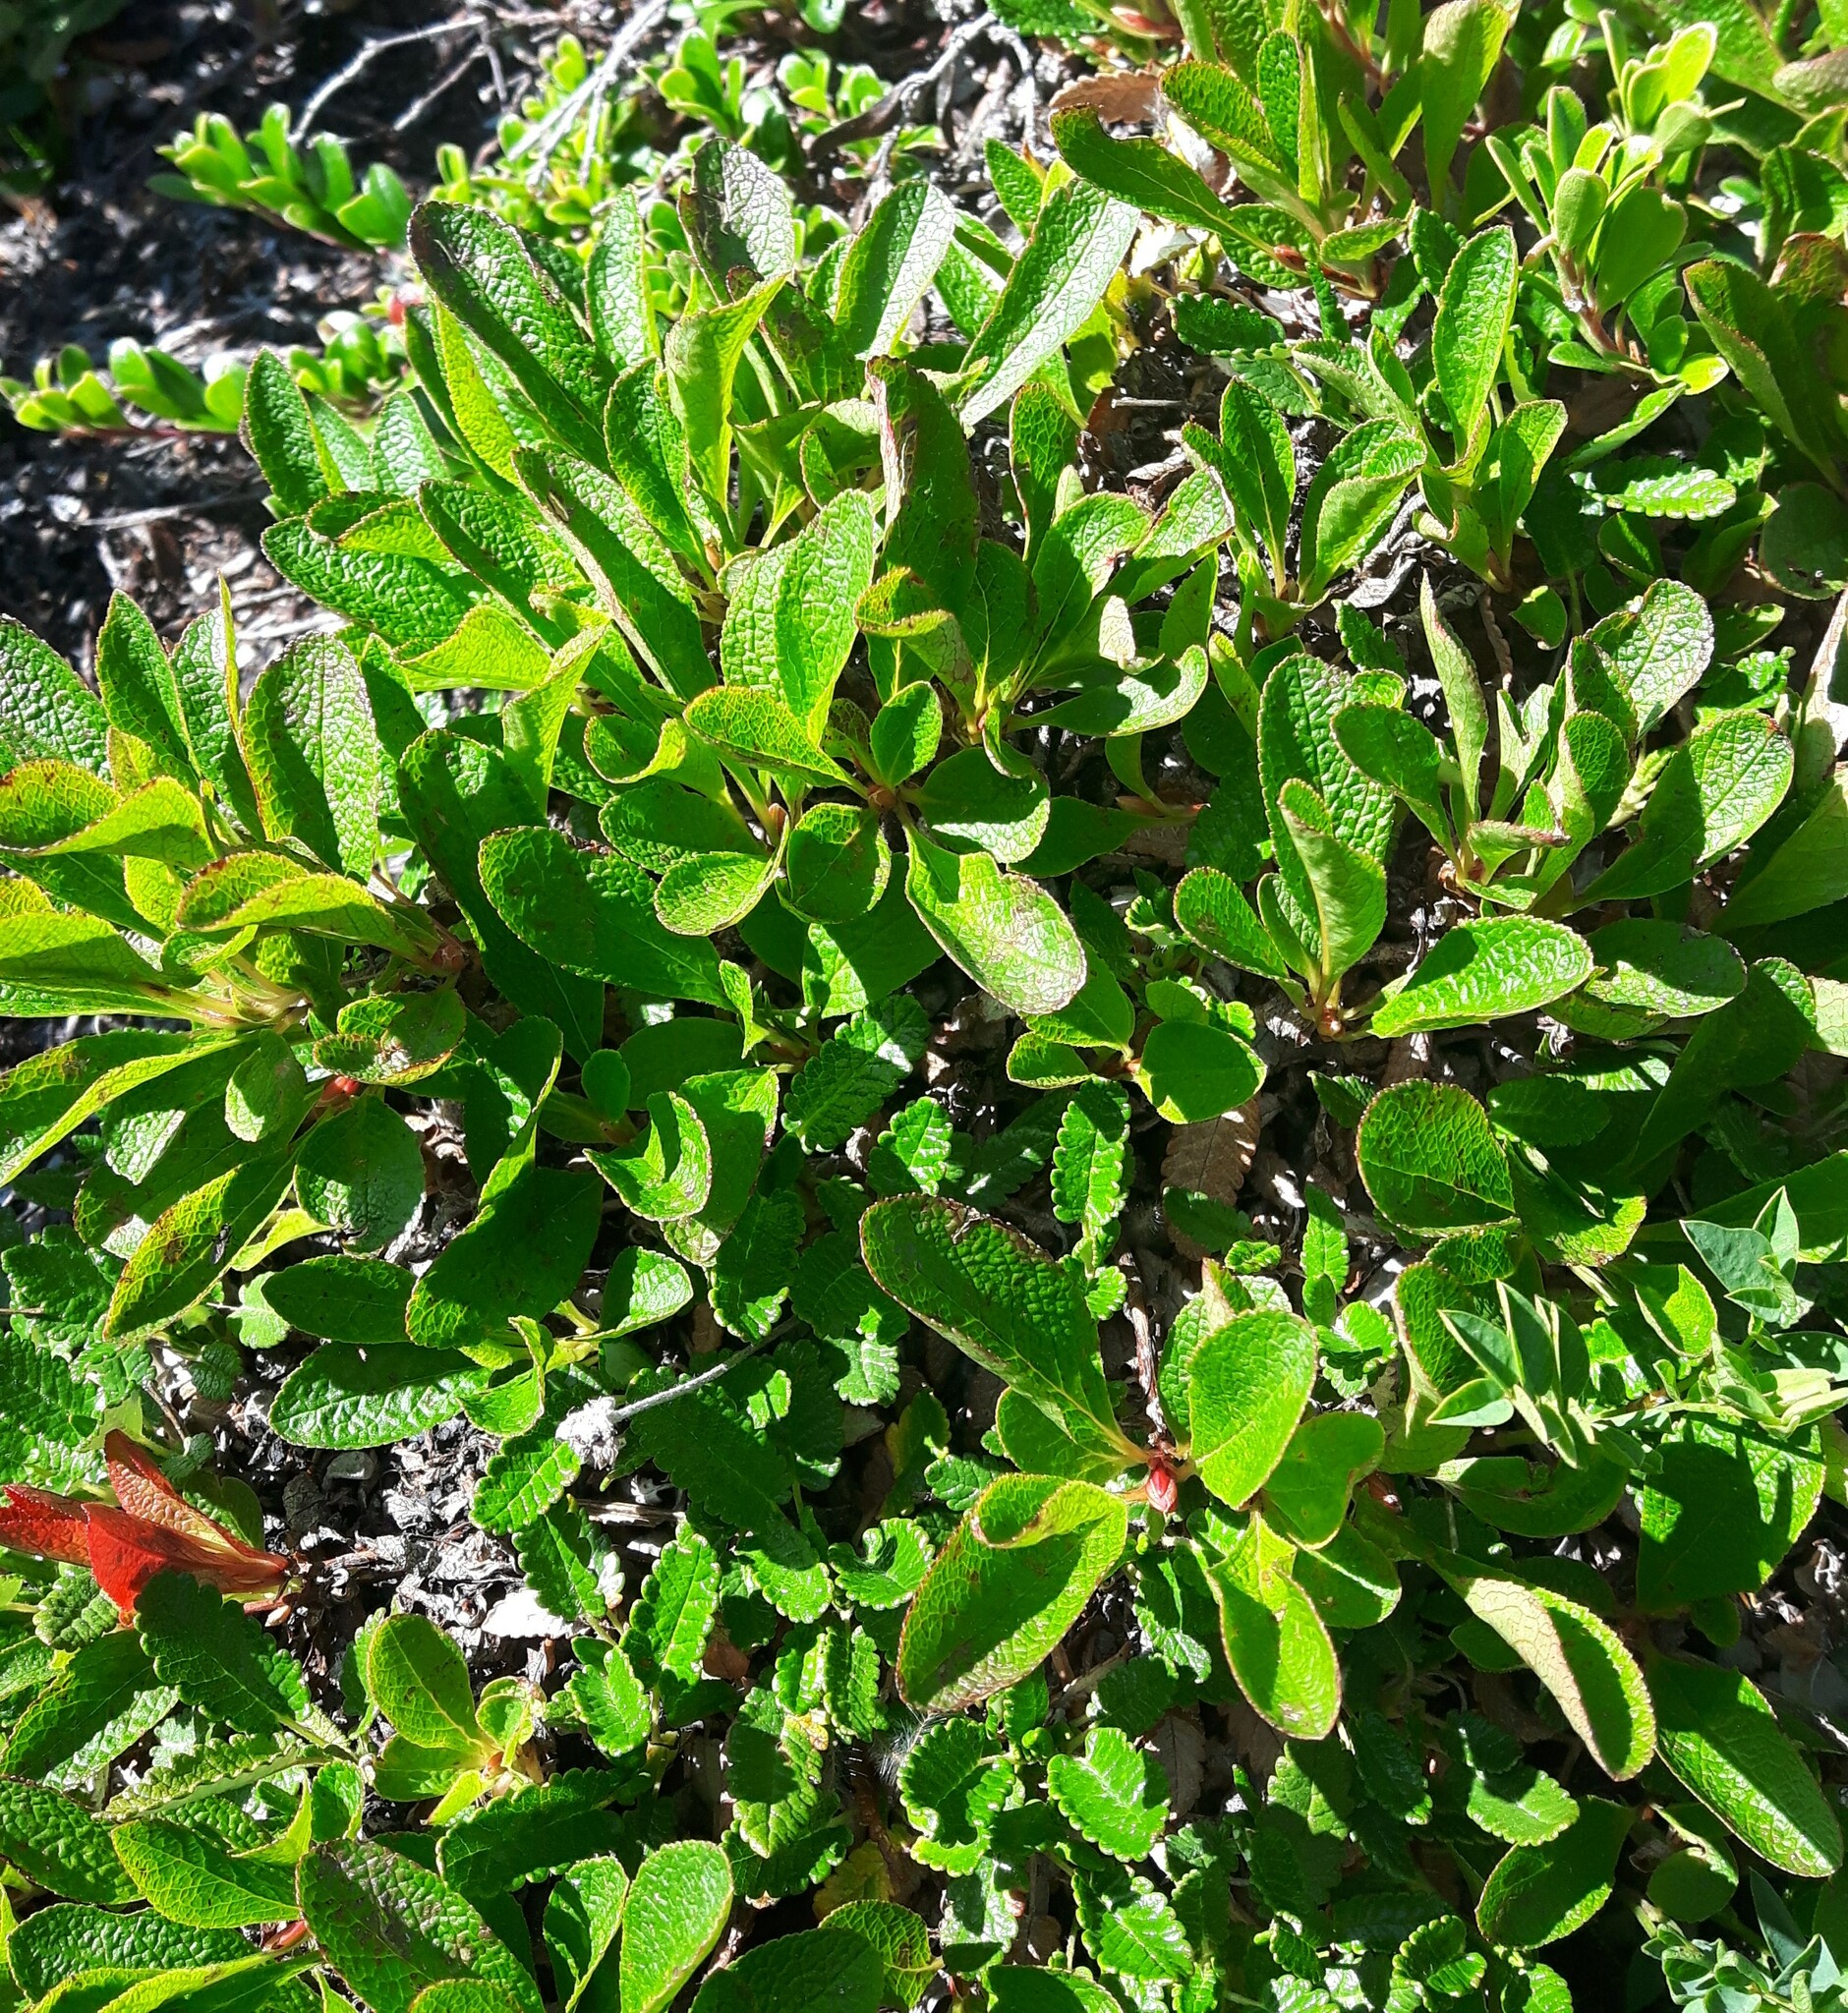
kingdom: Plantae
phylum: Tracheophyta
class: Magnoliopsida
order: Ericales
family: Ericaceae
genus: Arctostaphylos
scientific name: Arctostaphylos rubra
